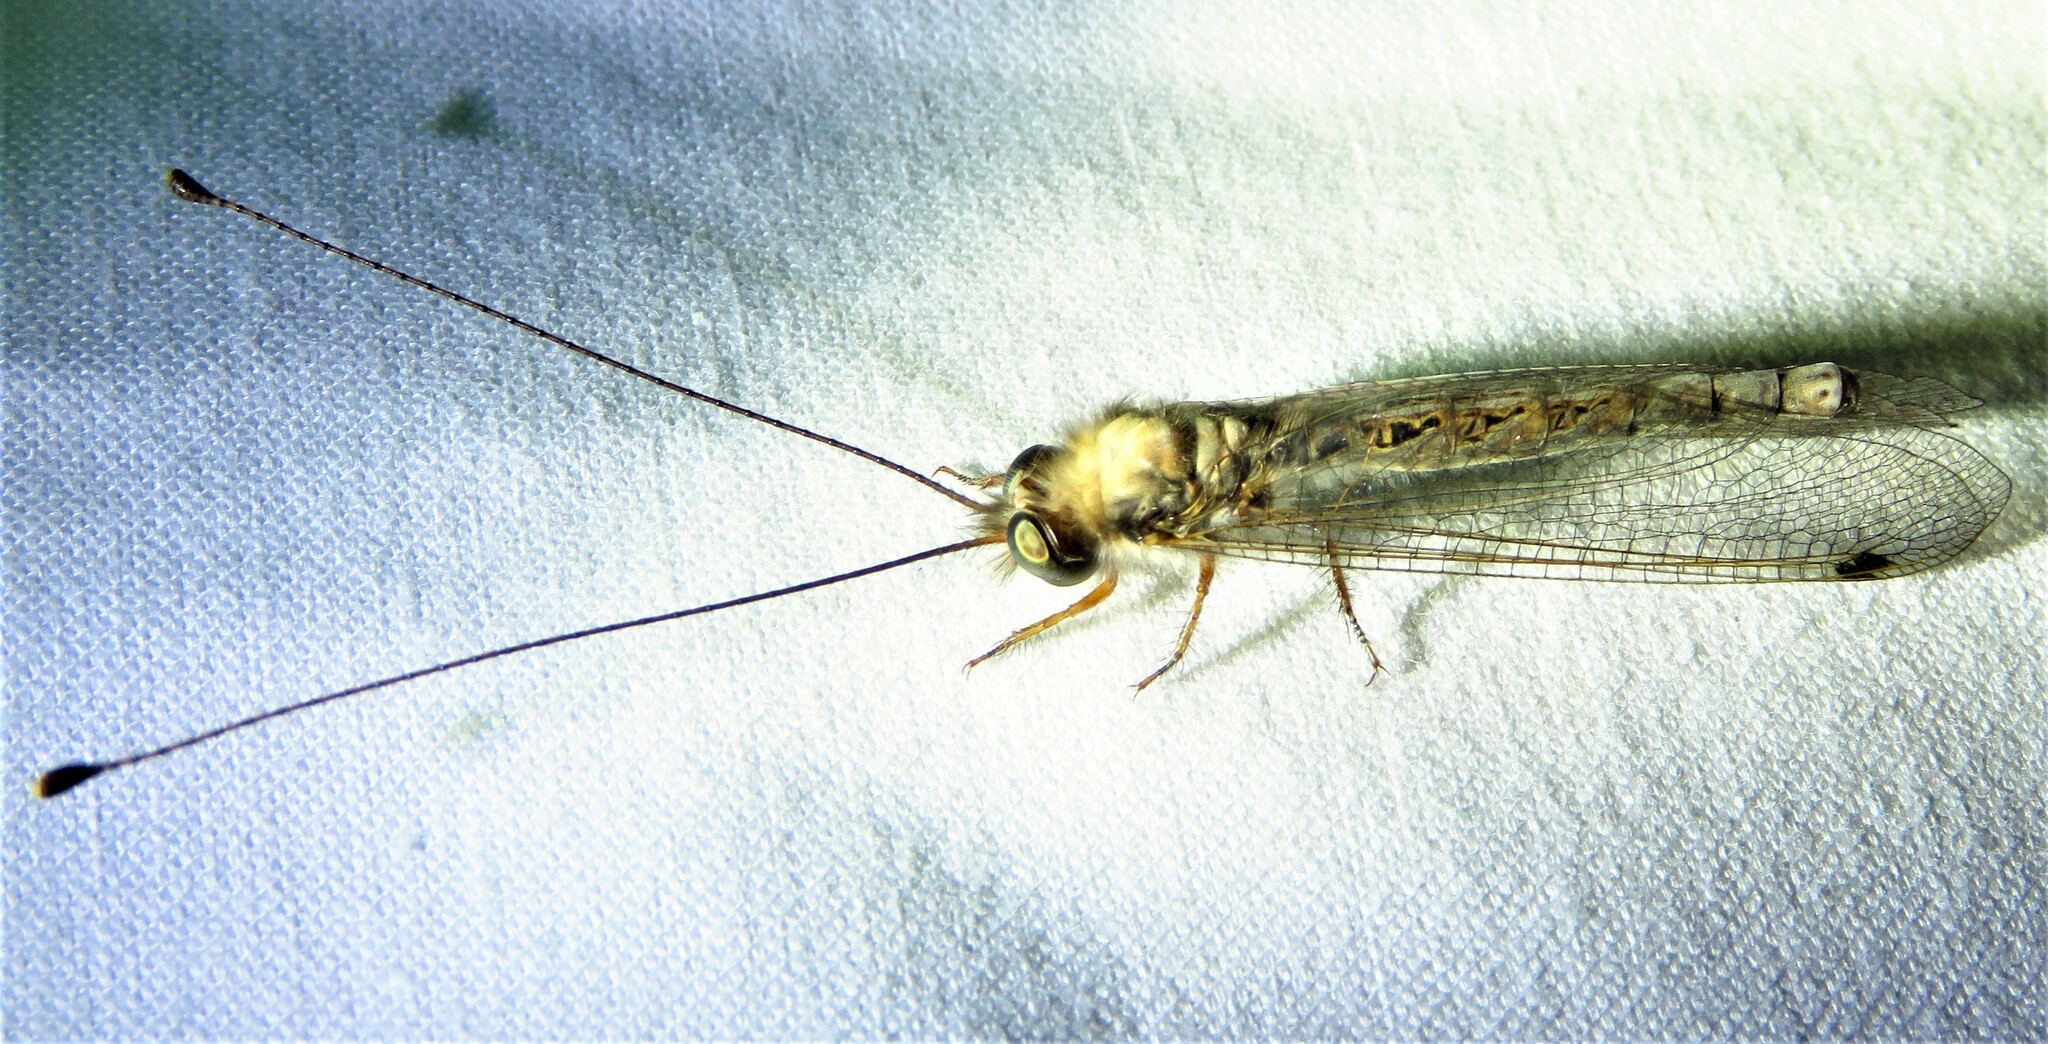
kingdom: Animalia
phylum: Arthropoda
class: Insecta
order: Neuroptera
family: Ascalaphidae
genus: Ululodes
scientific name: Ululodes macleayanus
